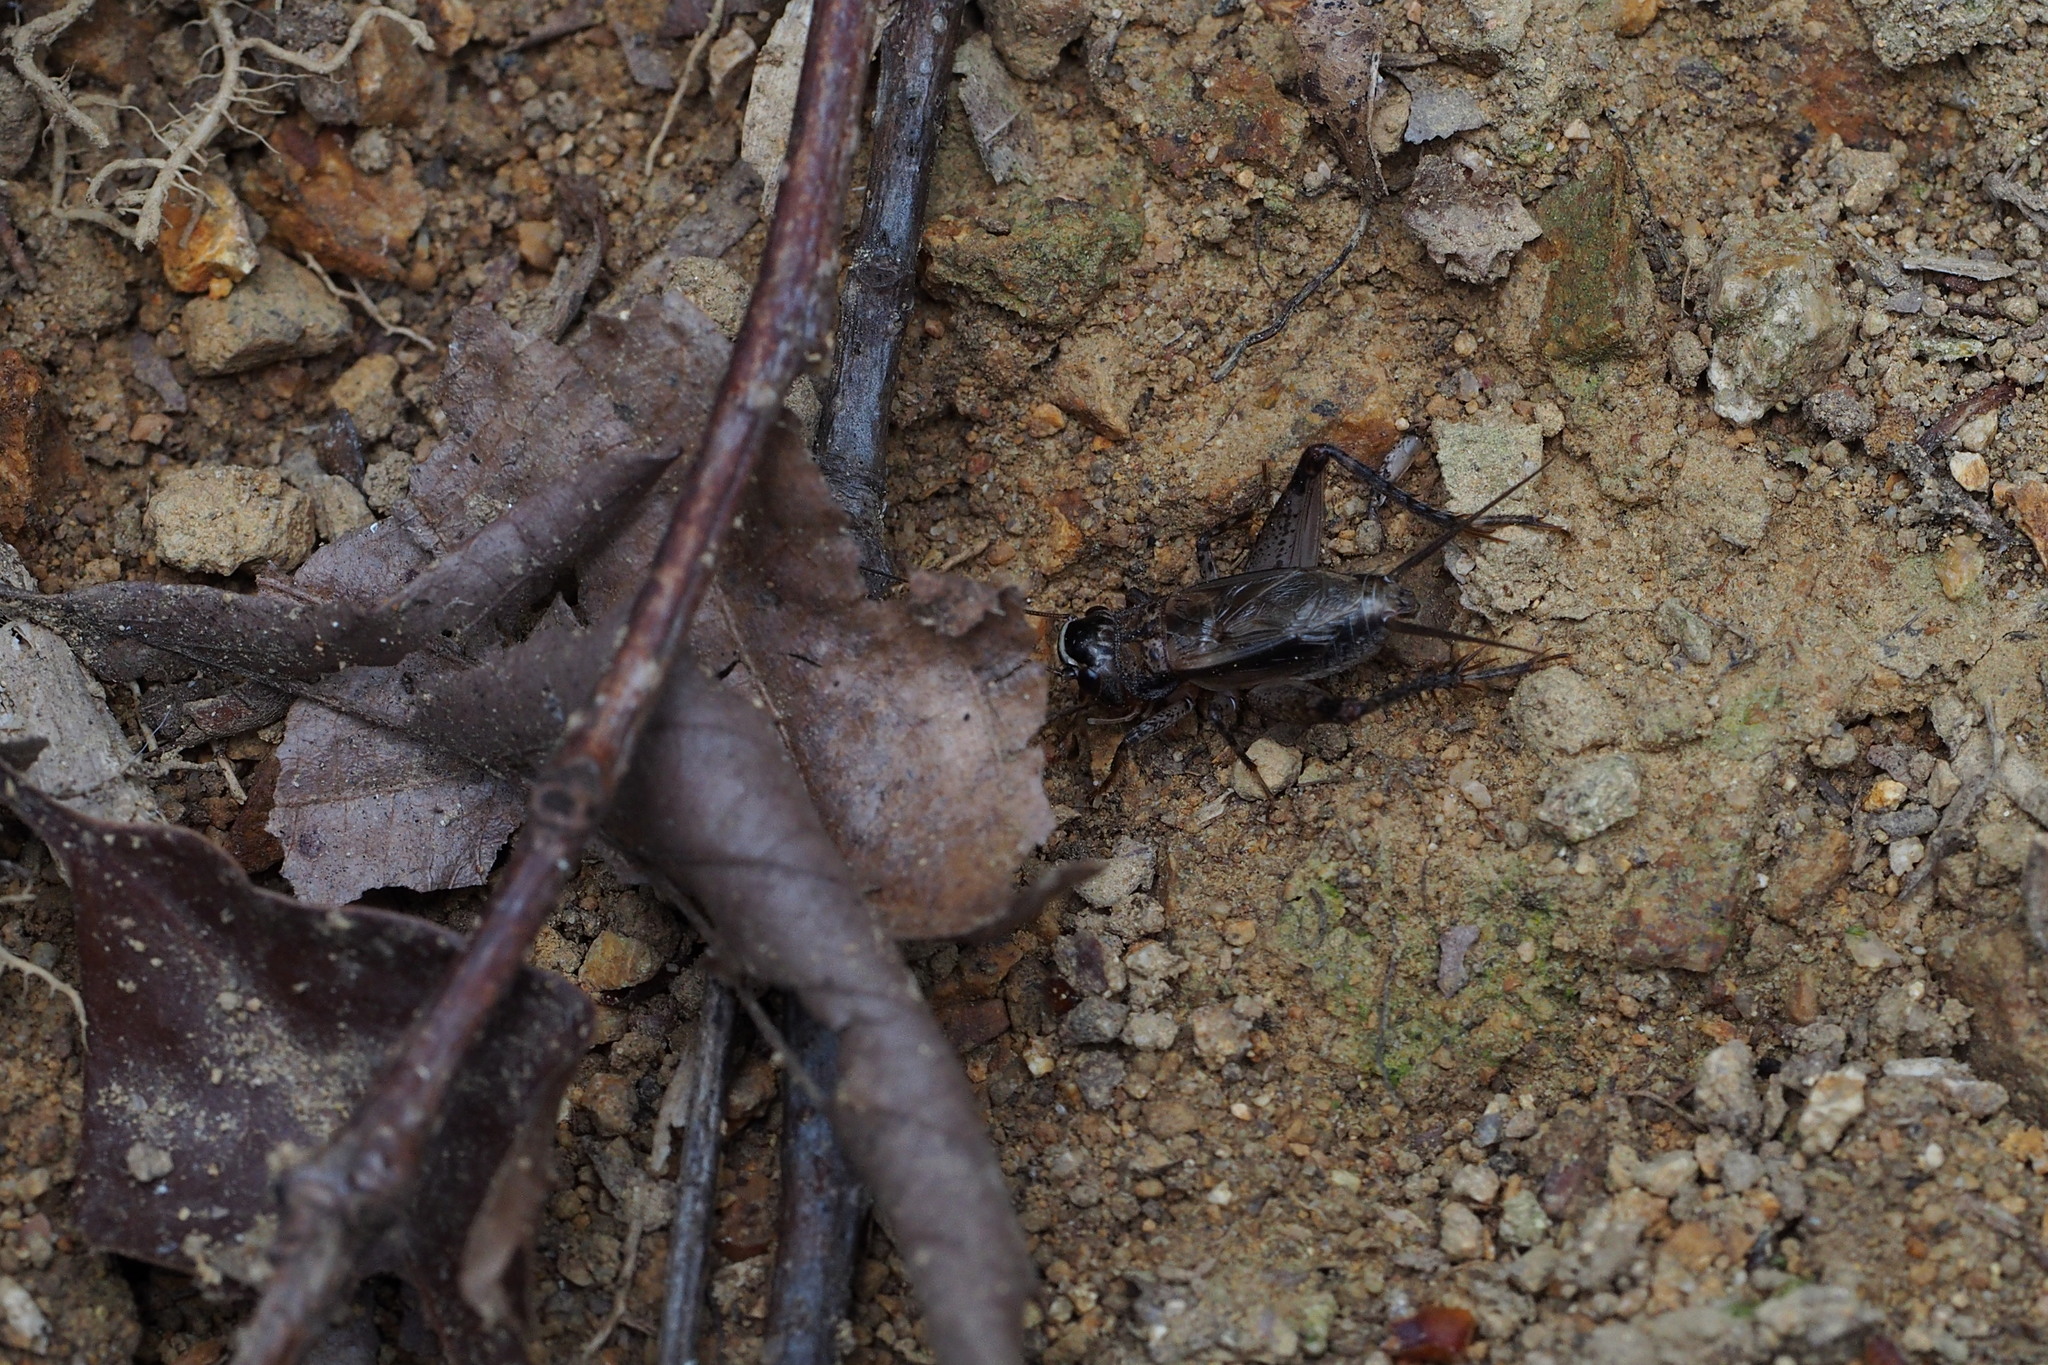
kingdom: Animalia
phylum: Arthropoda
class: Insecta
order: Orthoptera
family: Gryllidae
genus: Loxoblemmus
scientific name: Loxoblemmus sylvestris
